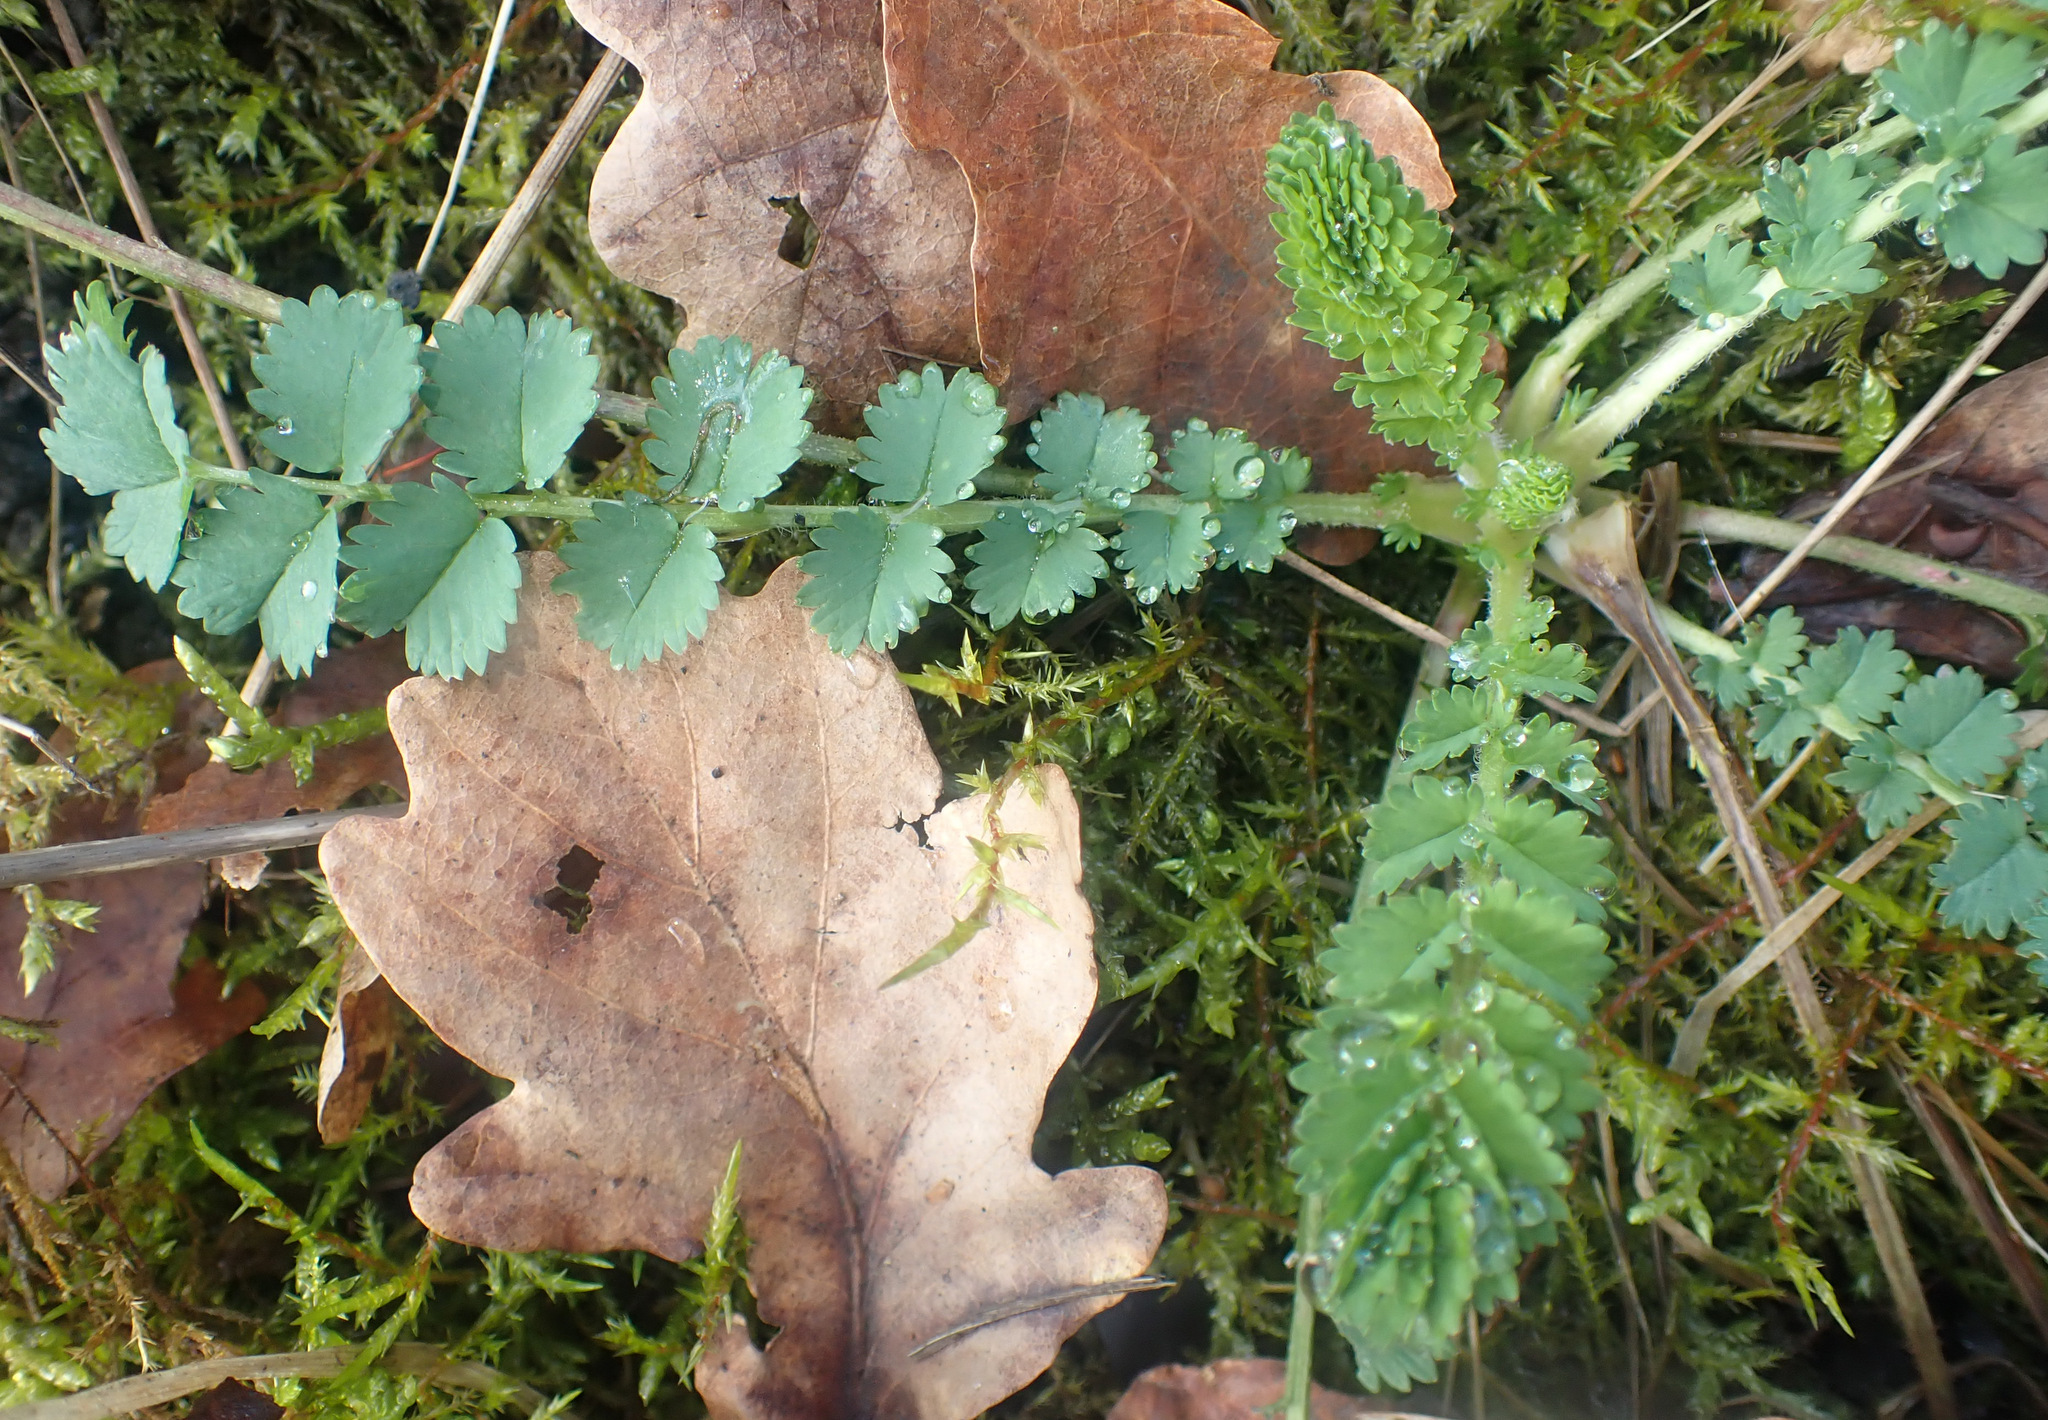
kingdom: Plantae
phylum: Tracheophyta
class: Magnoliopsida
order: Rosales
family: Rosaceae
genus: Poterium
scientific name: Poterium sanguisorba
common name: Salad burnet
